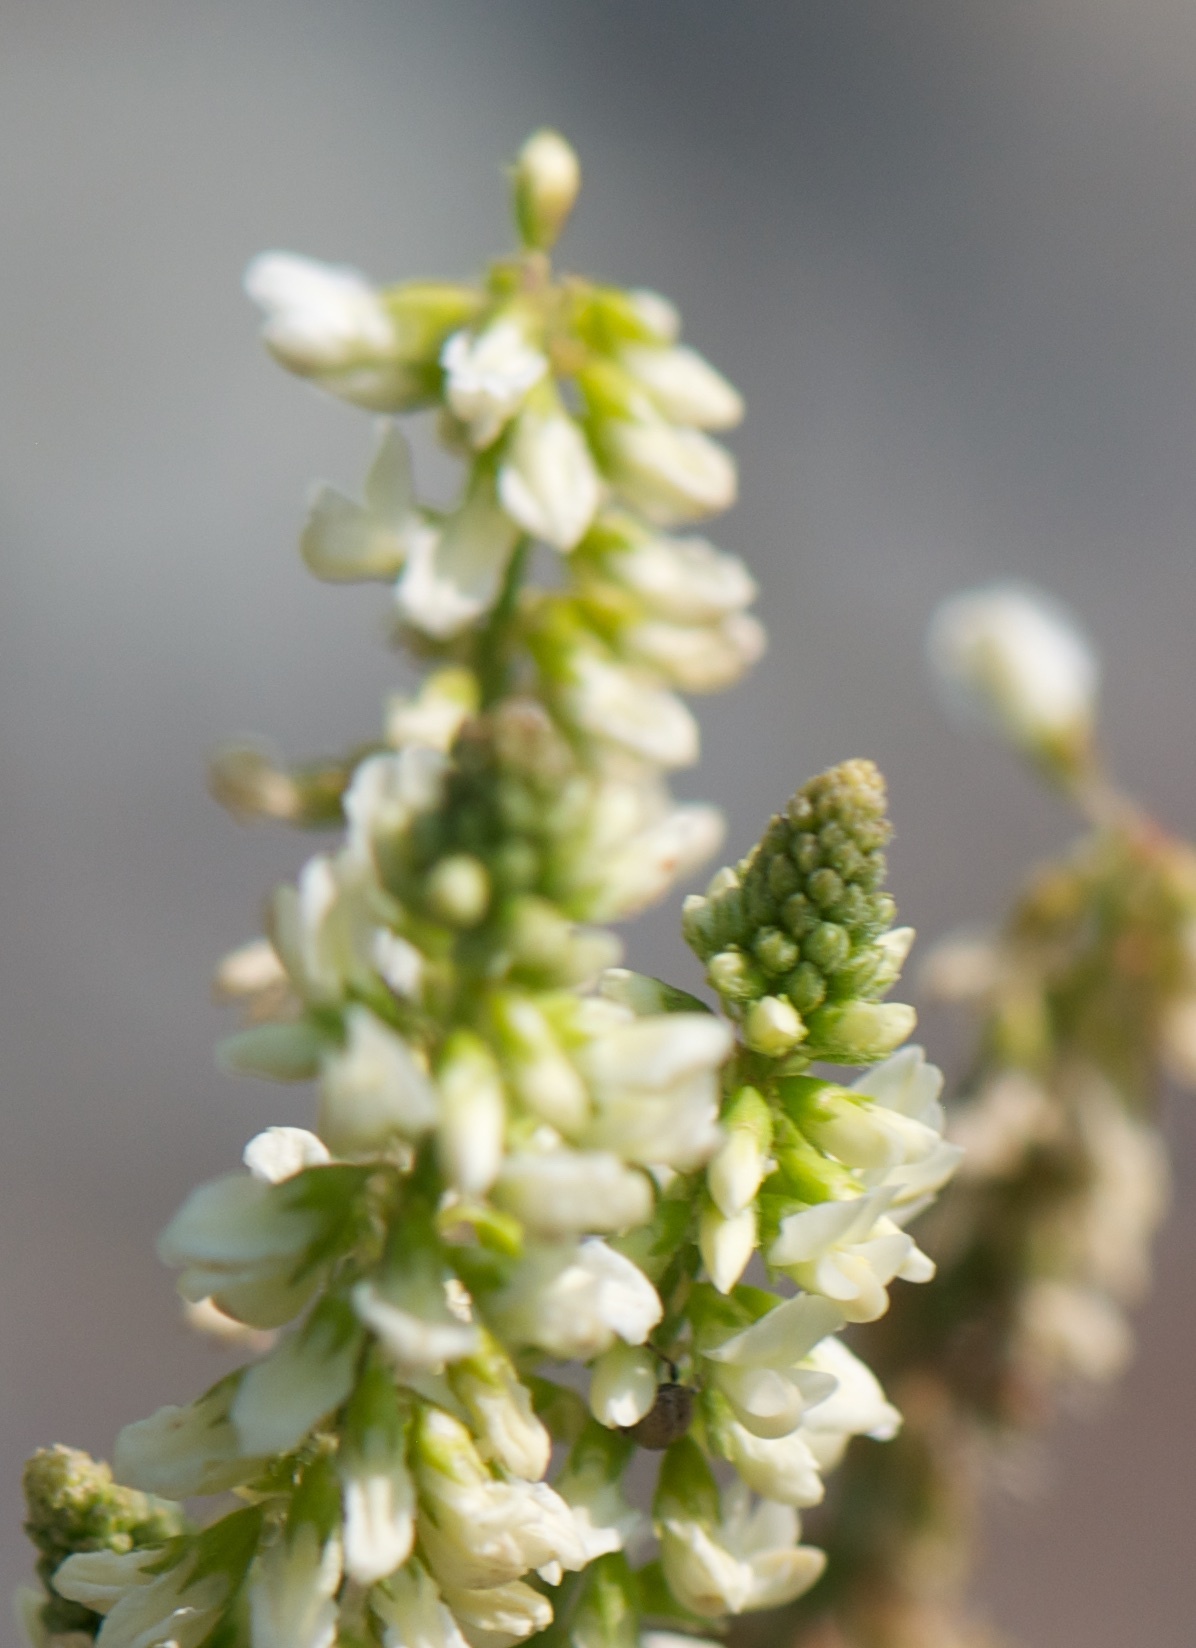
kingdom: Plantae
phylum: Tracheophyta
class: Magnoliopsida
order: Fabales
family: Fabaceae
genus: Melilotus
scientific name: Melilotus albus
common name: White melilot
